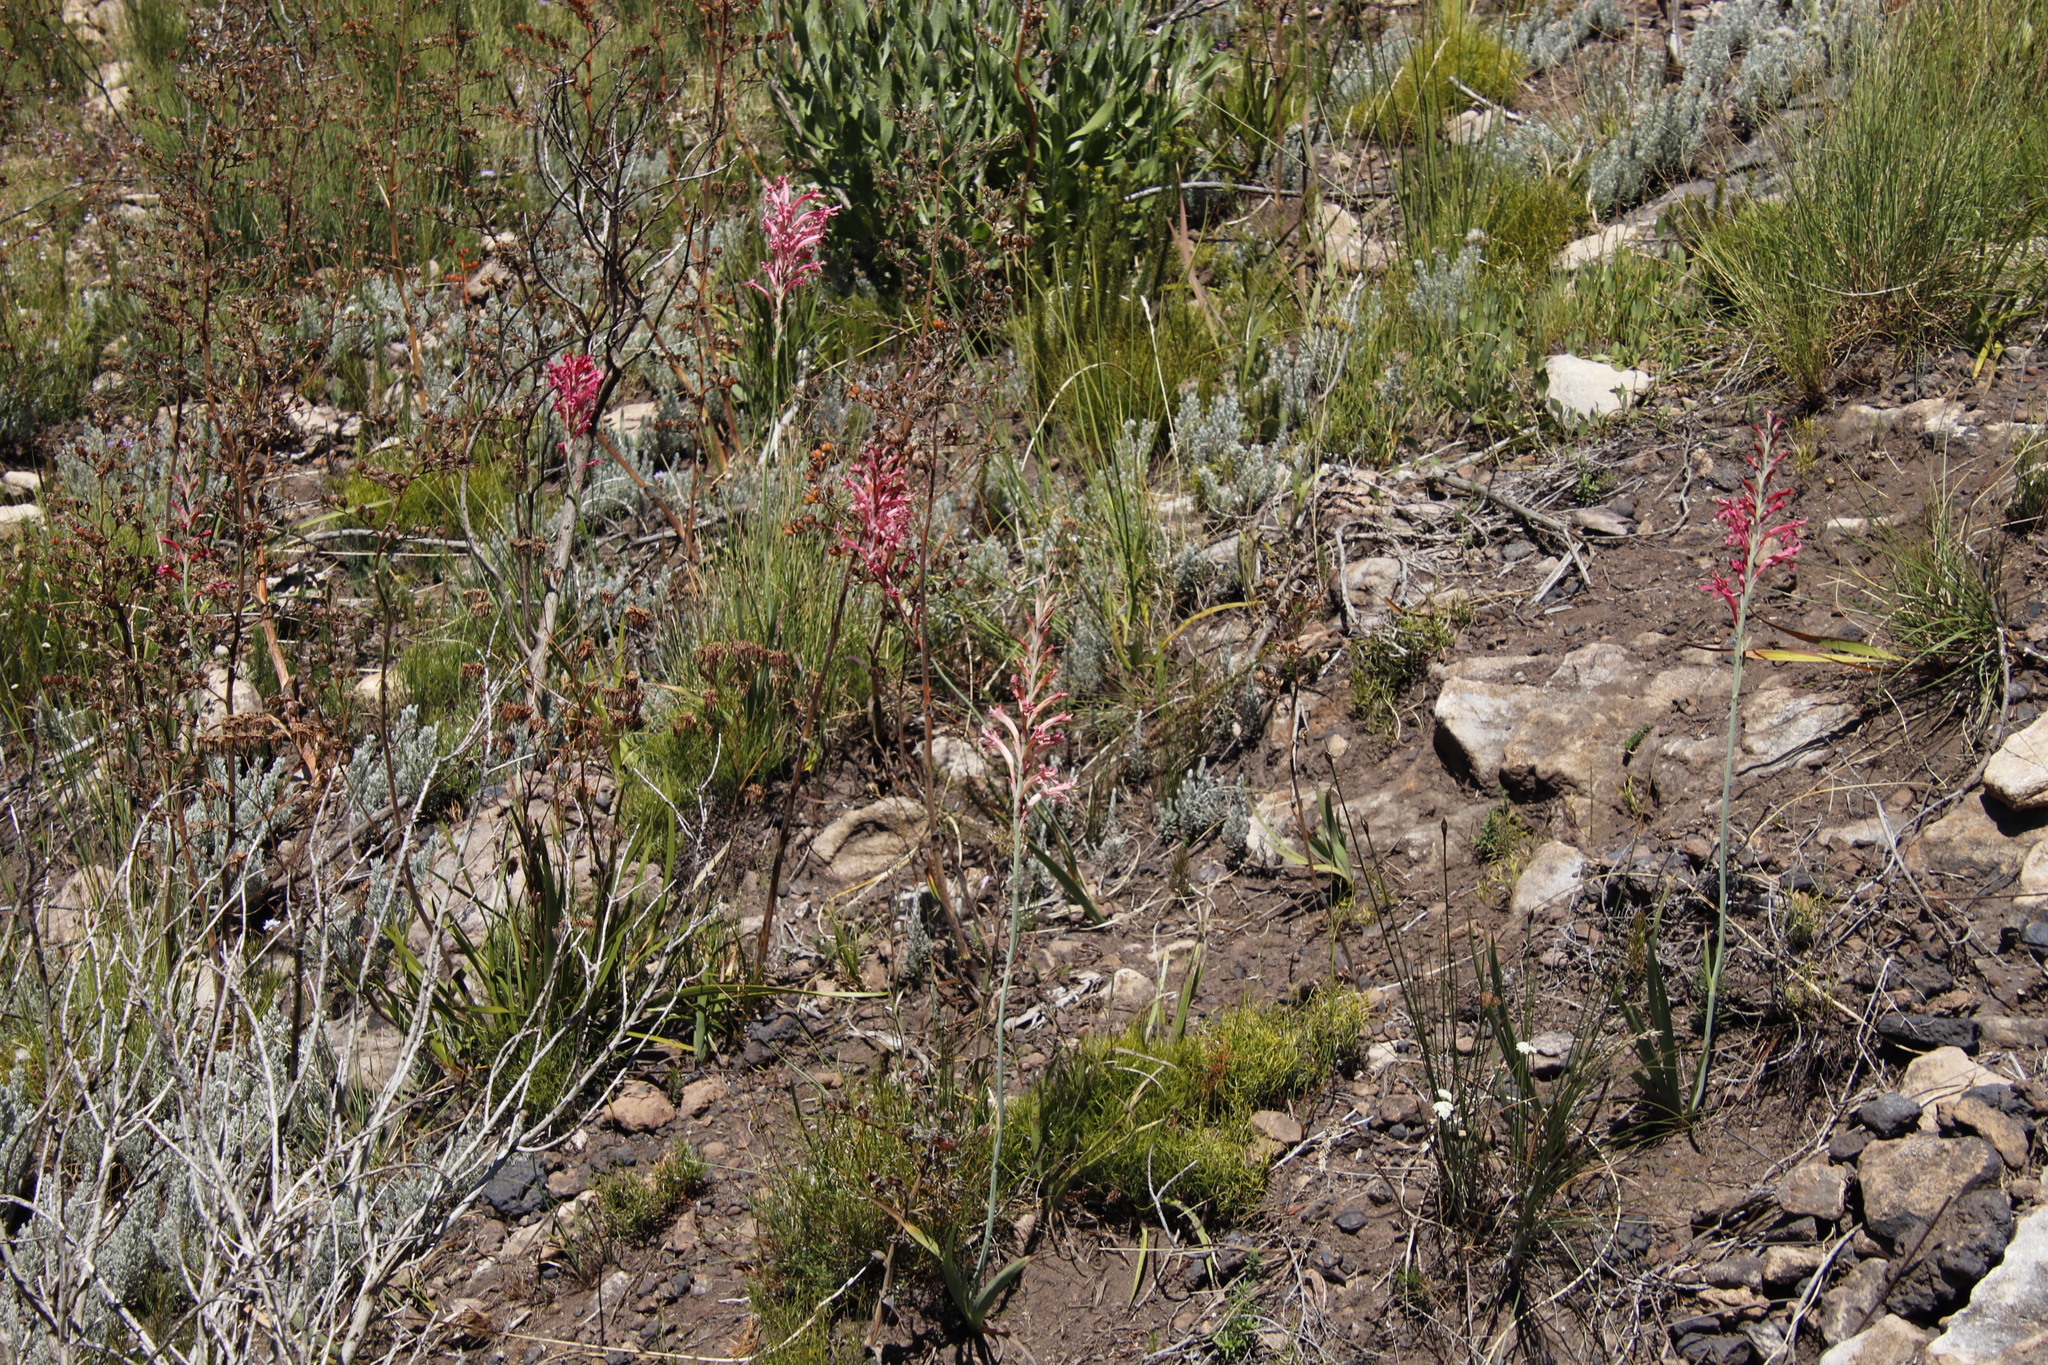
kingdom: Plantae
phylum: Tracheophyta
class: Liliopsida
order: Asparagales
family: Iridaceae
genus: Tritoniopsis
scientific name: Tritoniopsis antholyza
